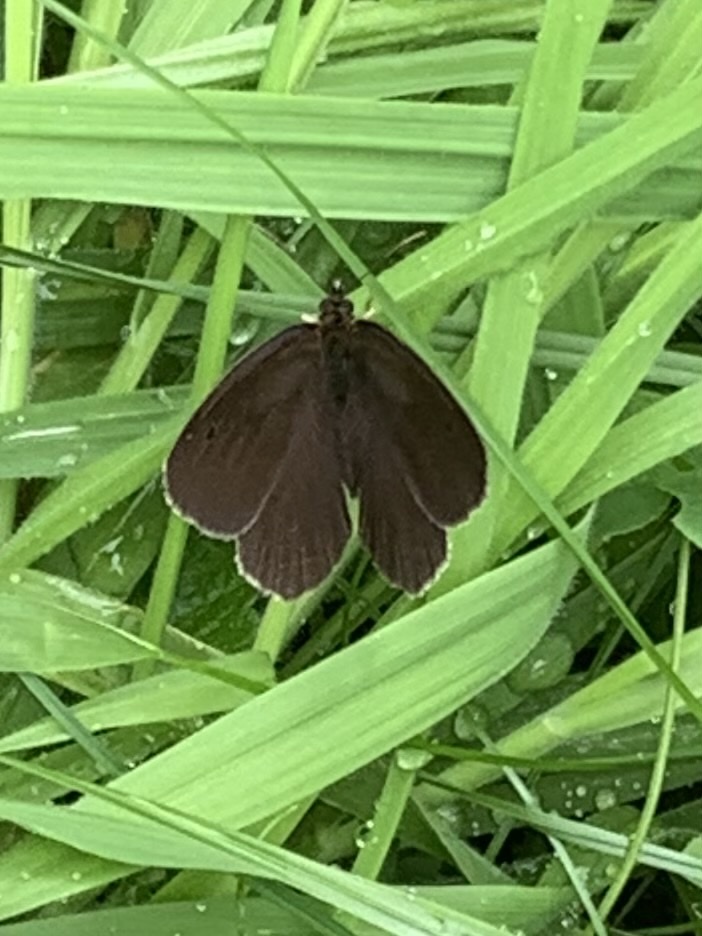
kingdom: Animalia
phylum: Arthropoda
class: Insecta
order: Lepidoptera
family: Nymphalidae
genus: Aphantopus
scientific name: Aphantopus hyperantus
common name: Ringlet
